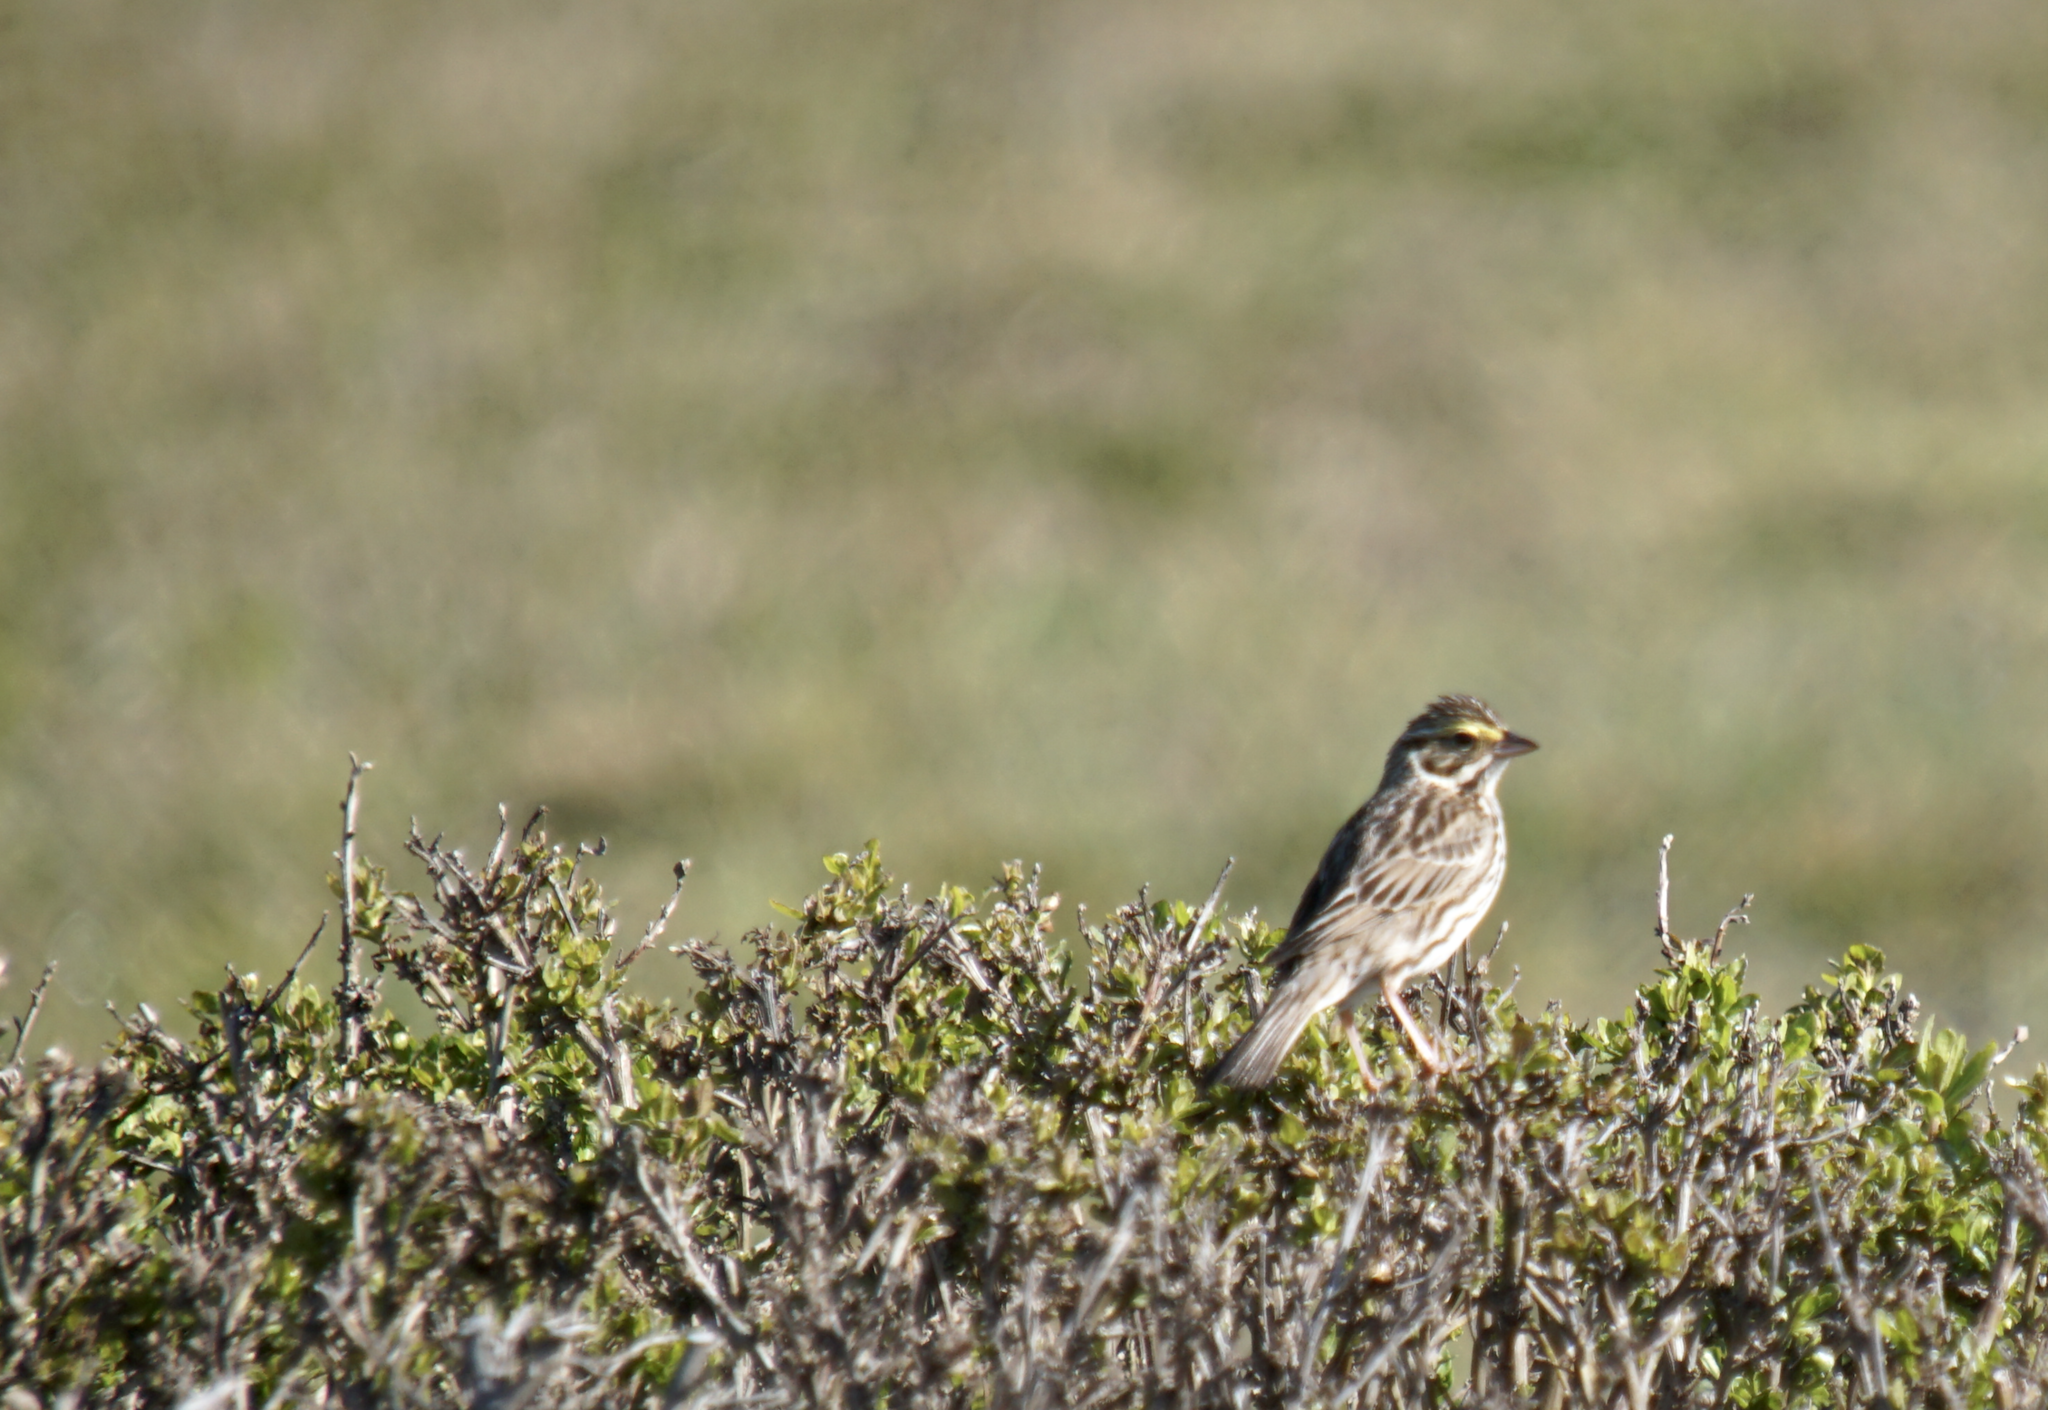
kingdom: Animalia
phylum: Chordata
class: Aves
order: Passeriformes
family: Passerellidae
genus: Passerculus
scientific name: Passerculus sandwichensis
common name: Savannah sparrow
